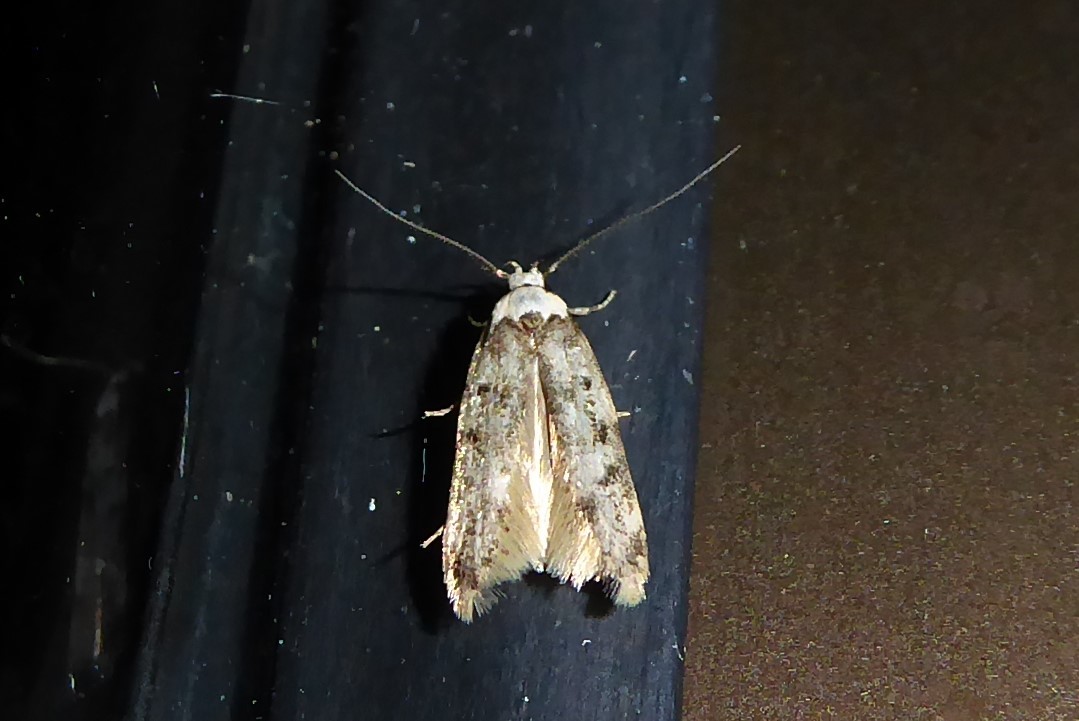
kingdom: Animalia
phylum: Arthropoda
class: Insecta
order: Lepidoptera
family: Oecophoridae
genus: Endrosis
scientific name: Endrosis sarcitrella
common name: White-shouldered house moth
